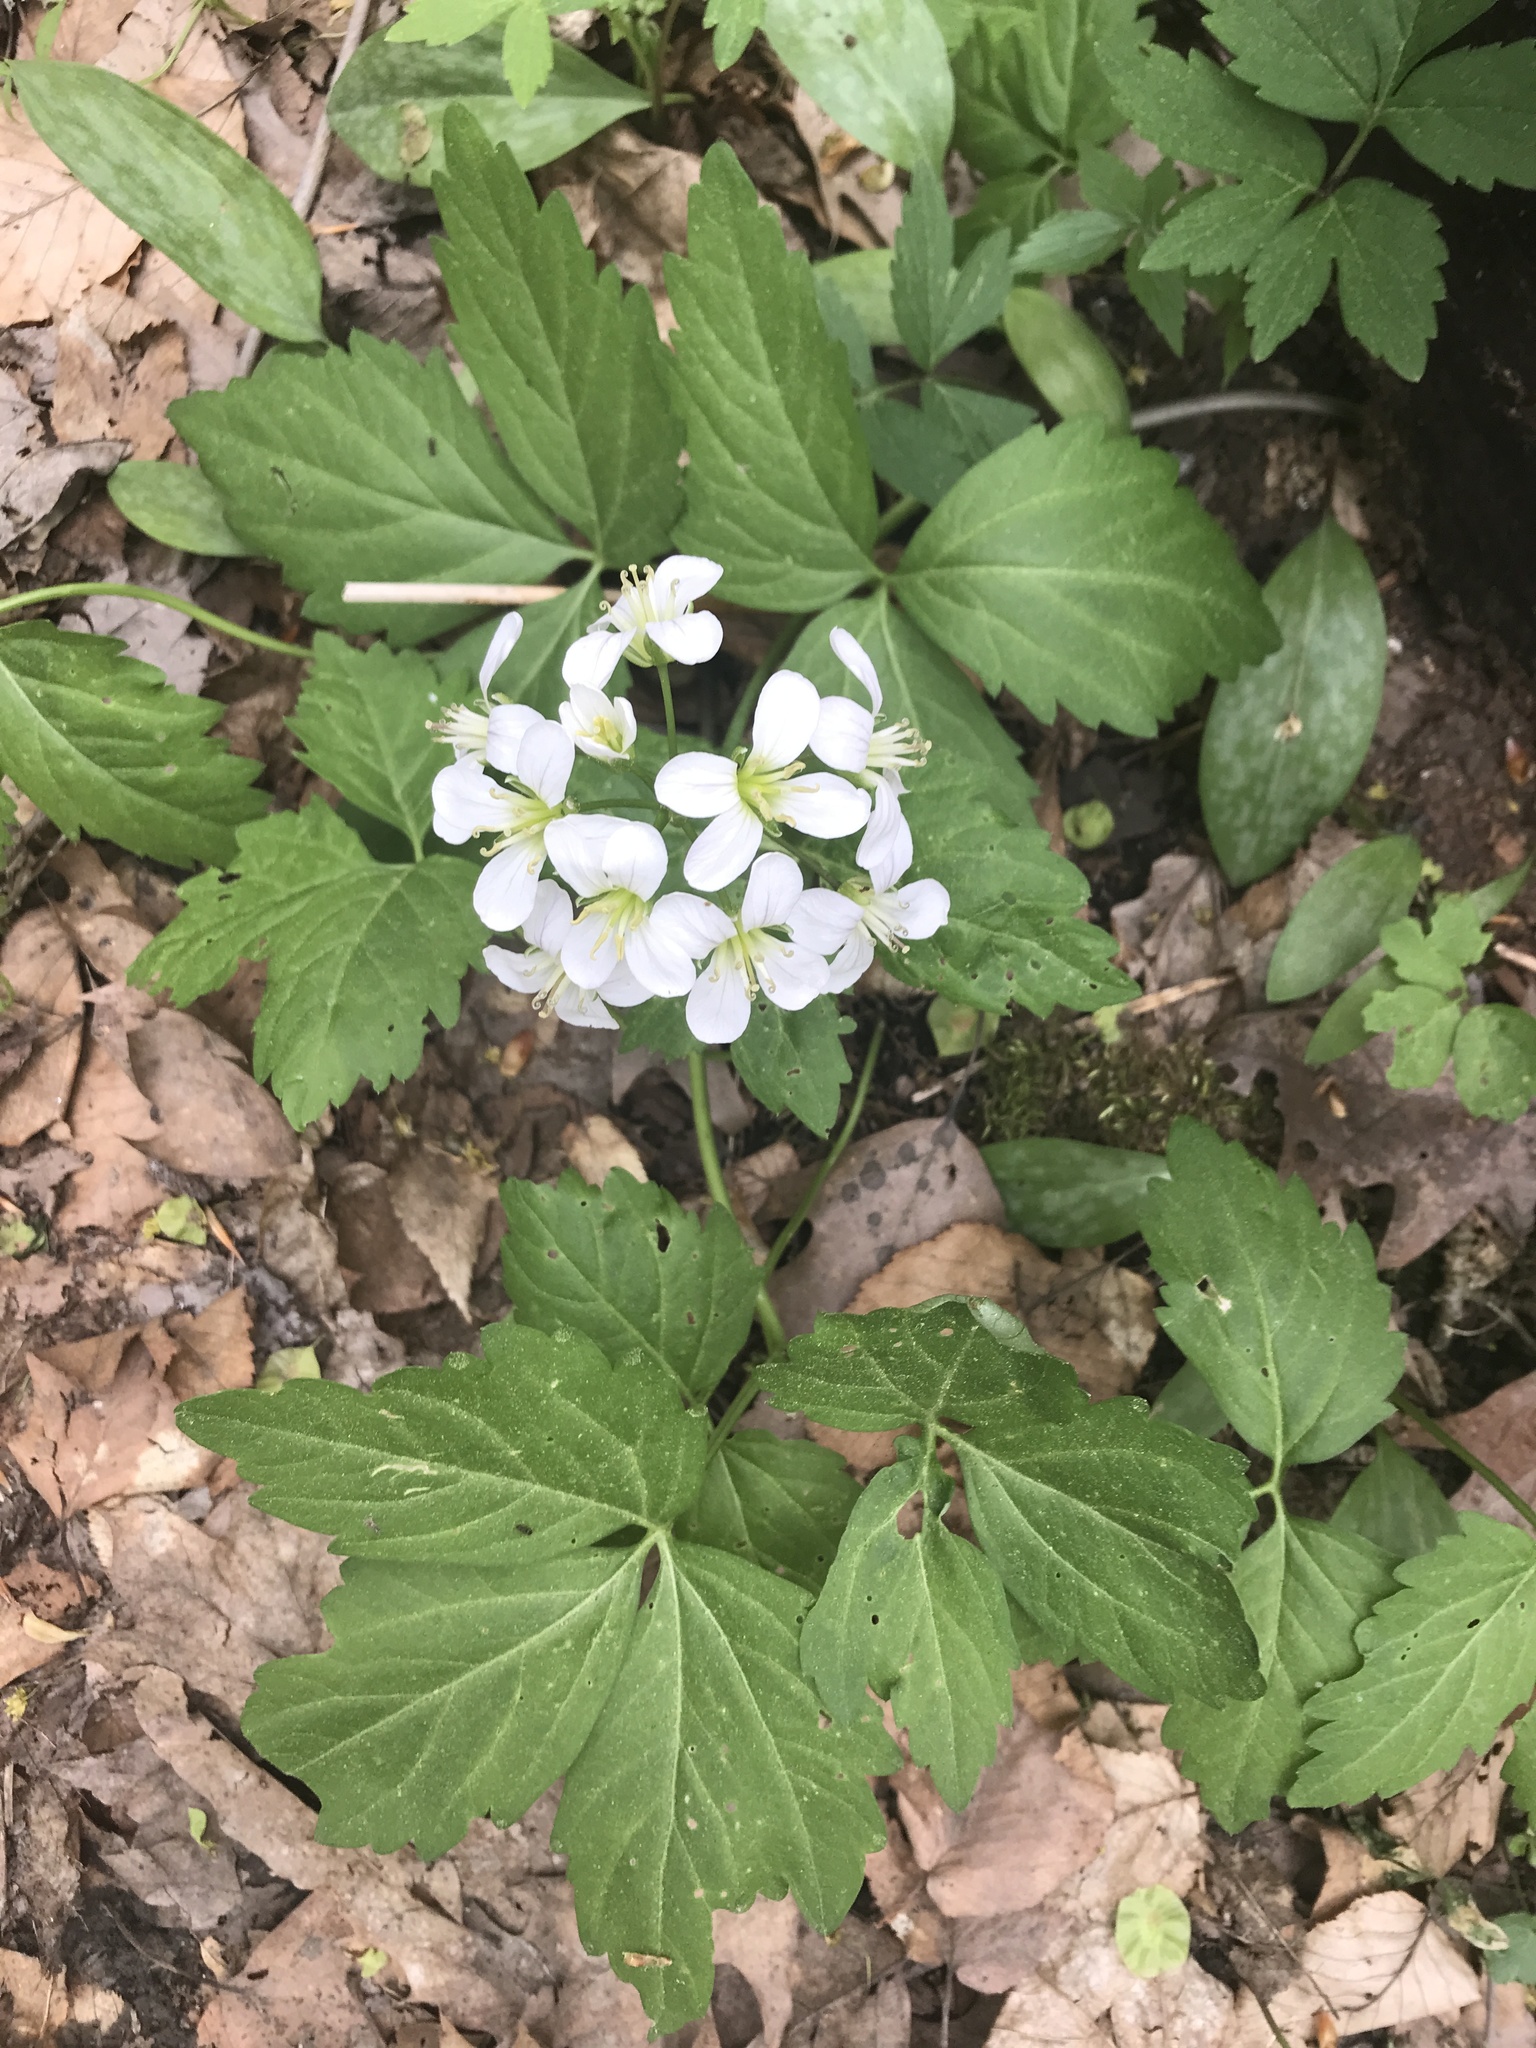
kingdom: Plantae
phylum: Tracheophyta
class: Magnoliopsida
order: Brassicales
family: Brassicaceae
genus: Cardamine
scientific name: Cardamine diphylla
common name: Broad-leaved toothwort
